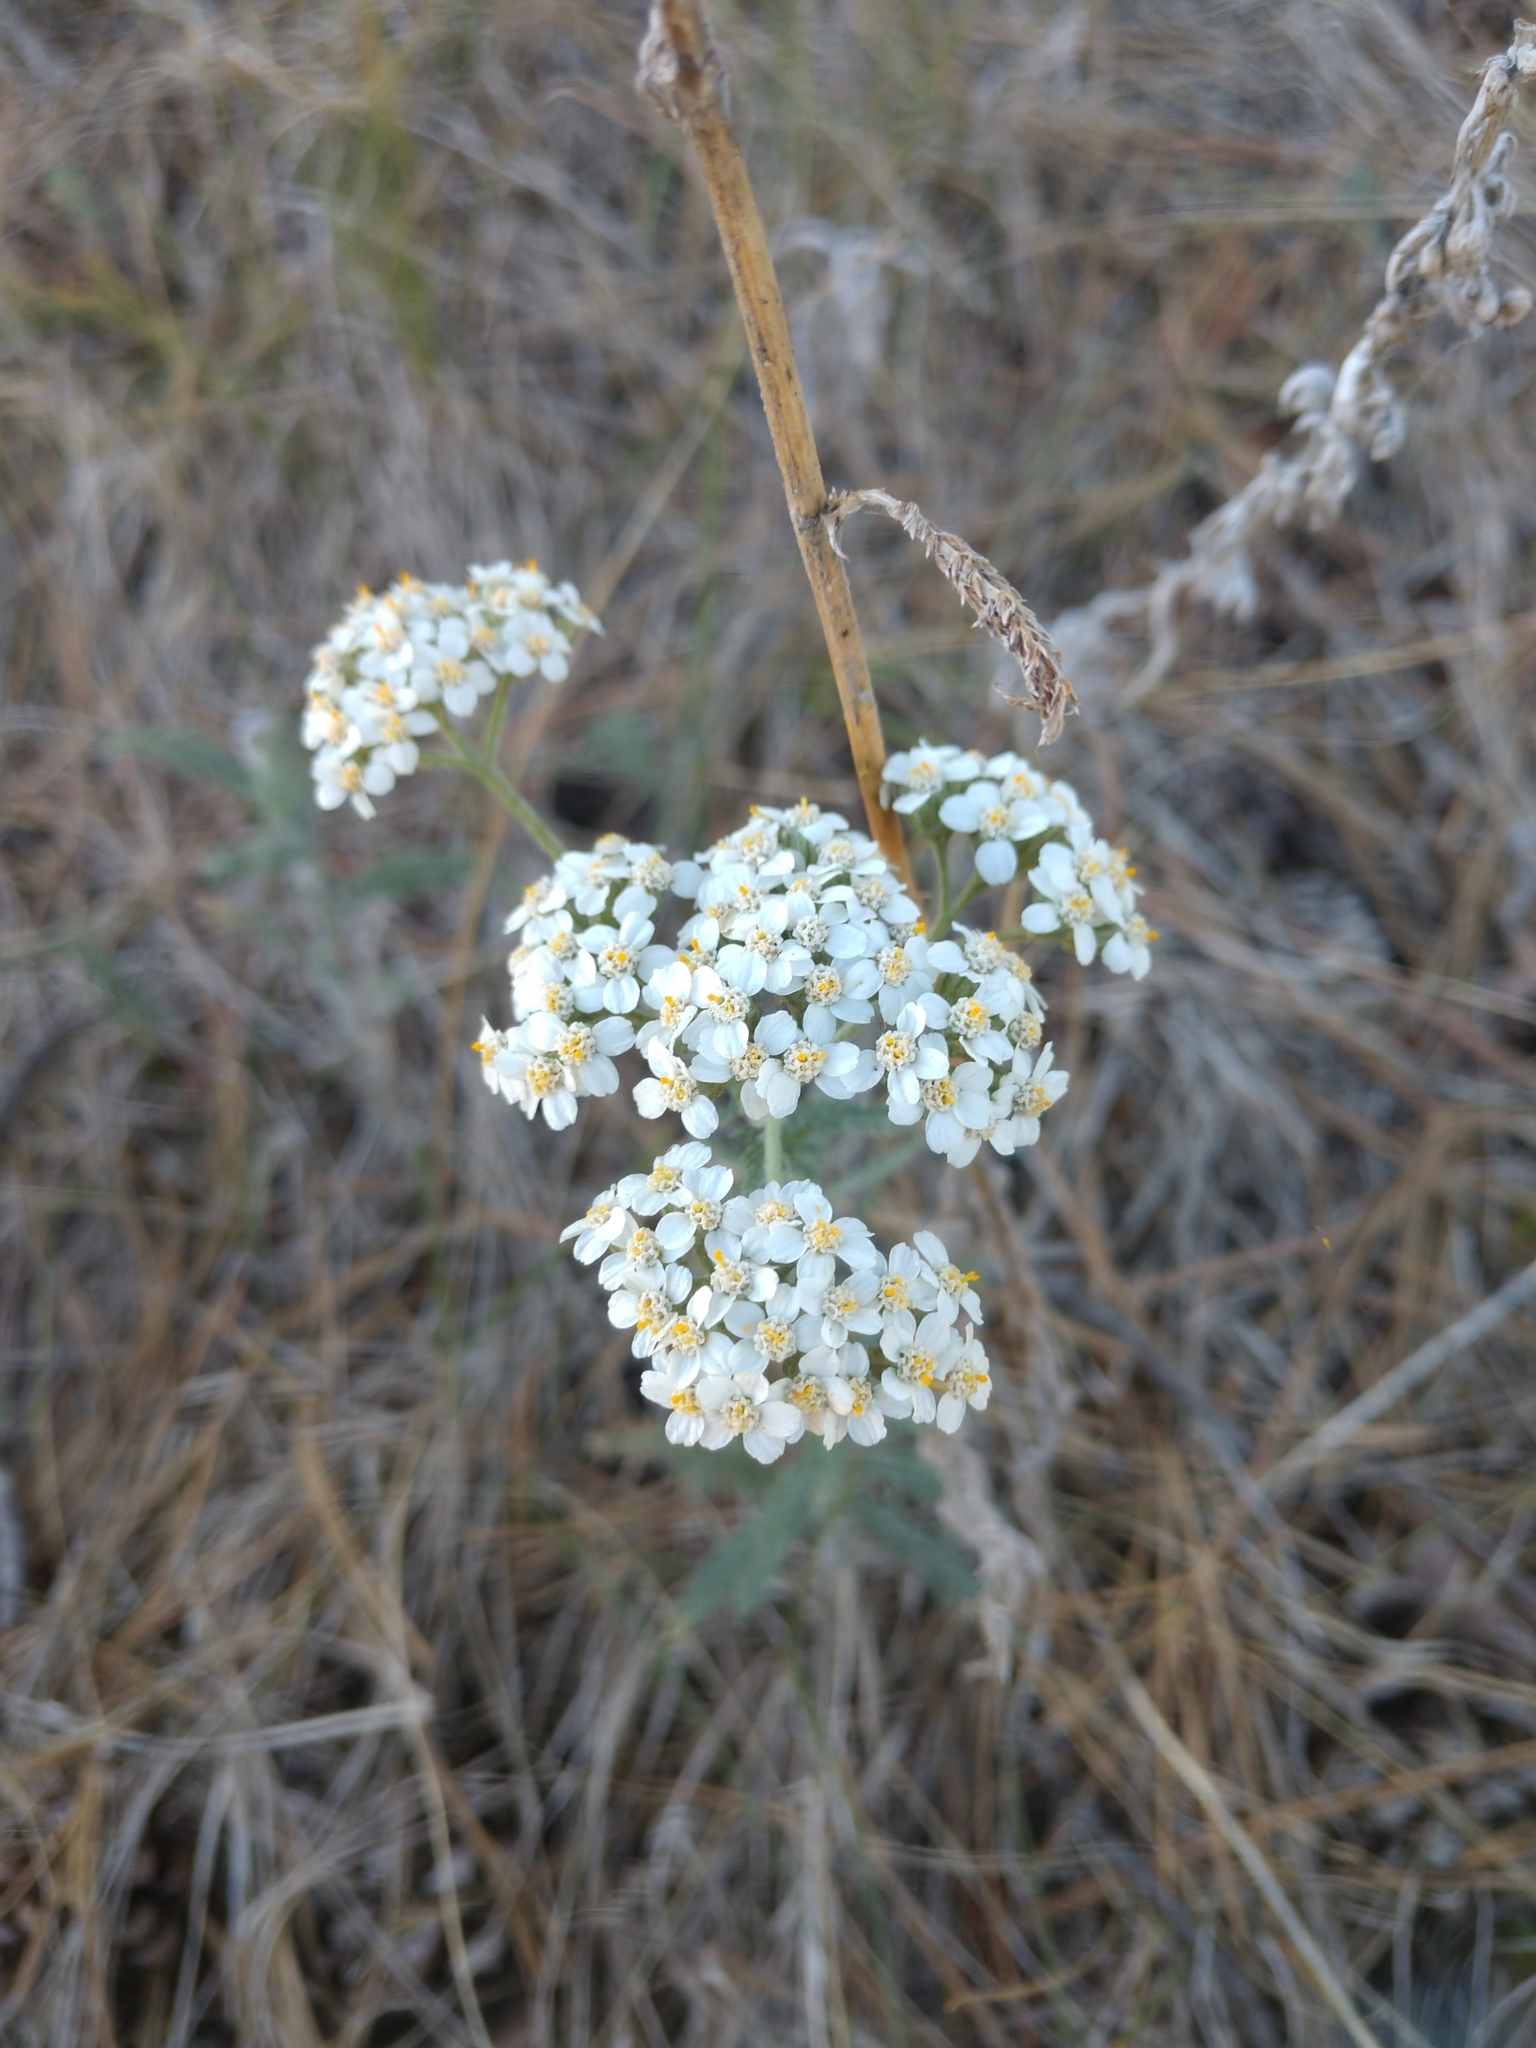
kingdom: Plantae
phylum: Tracheophyta
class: Magnoliopsida
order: Asterales
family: Asteraceae
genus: Achillea
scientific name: Achillea millefolium
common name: Yarrow
